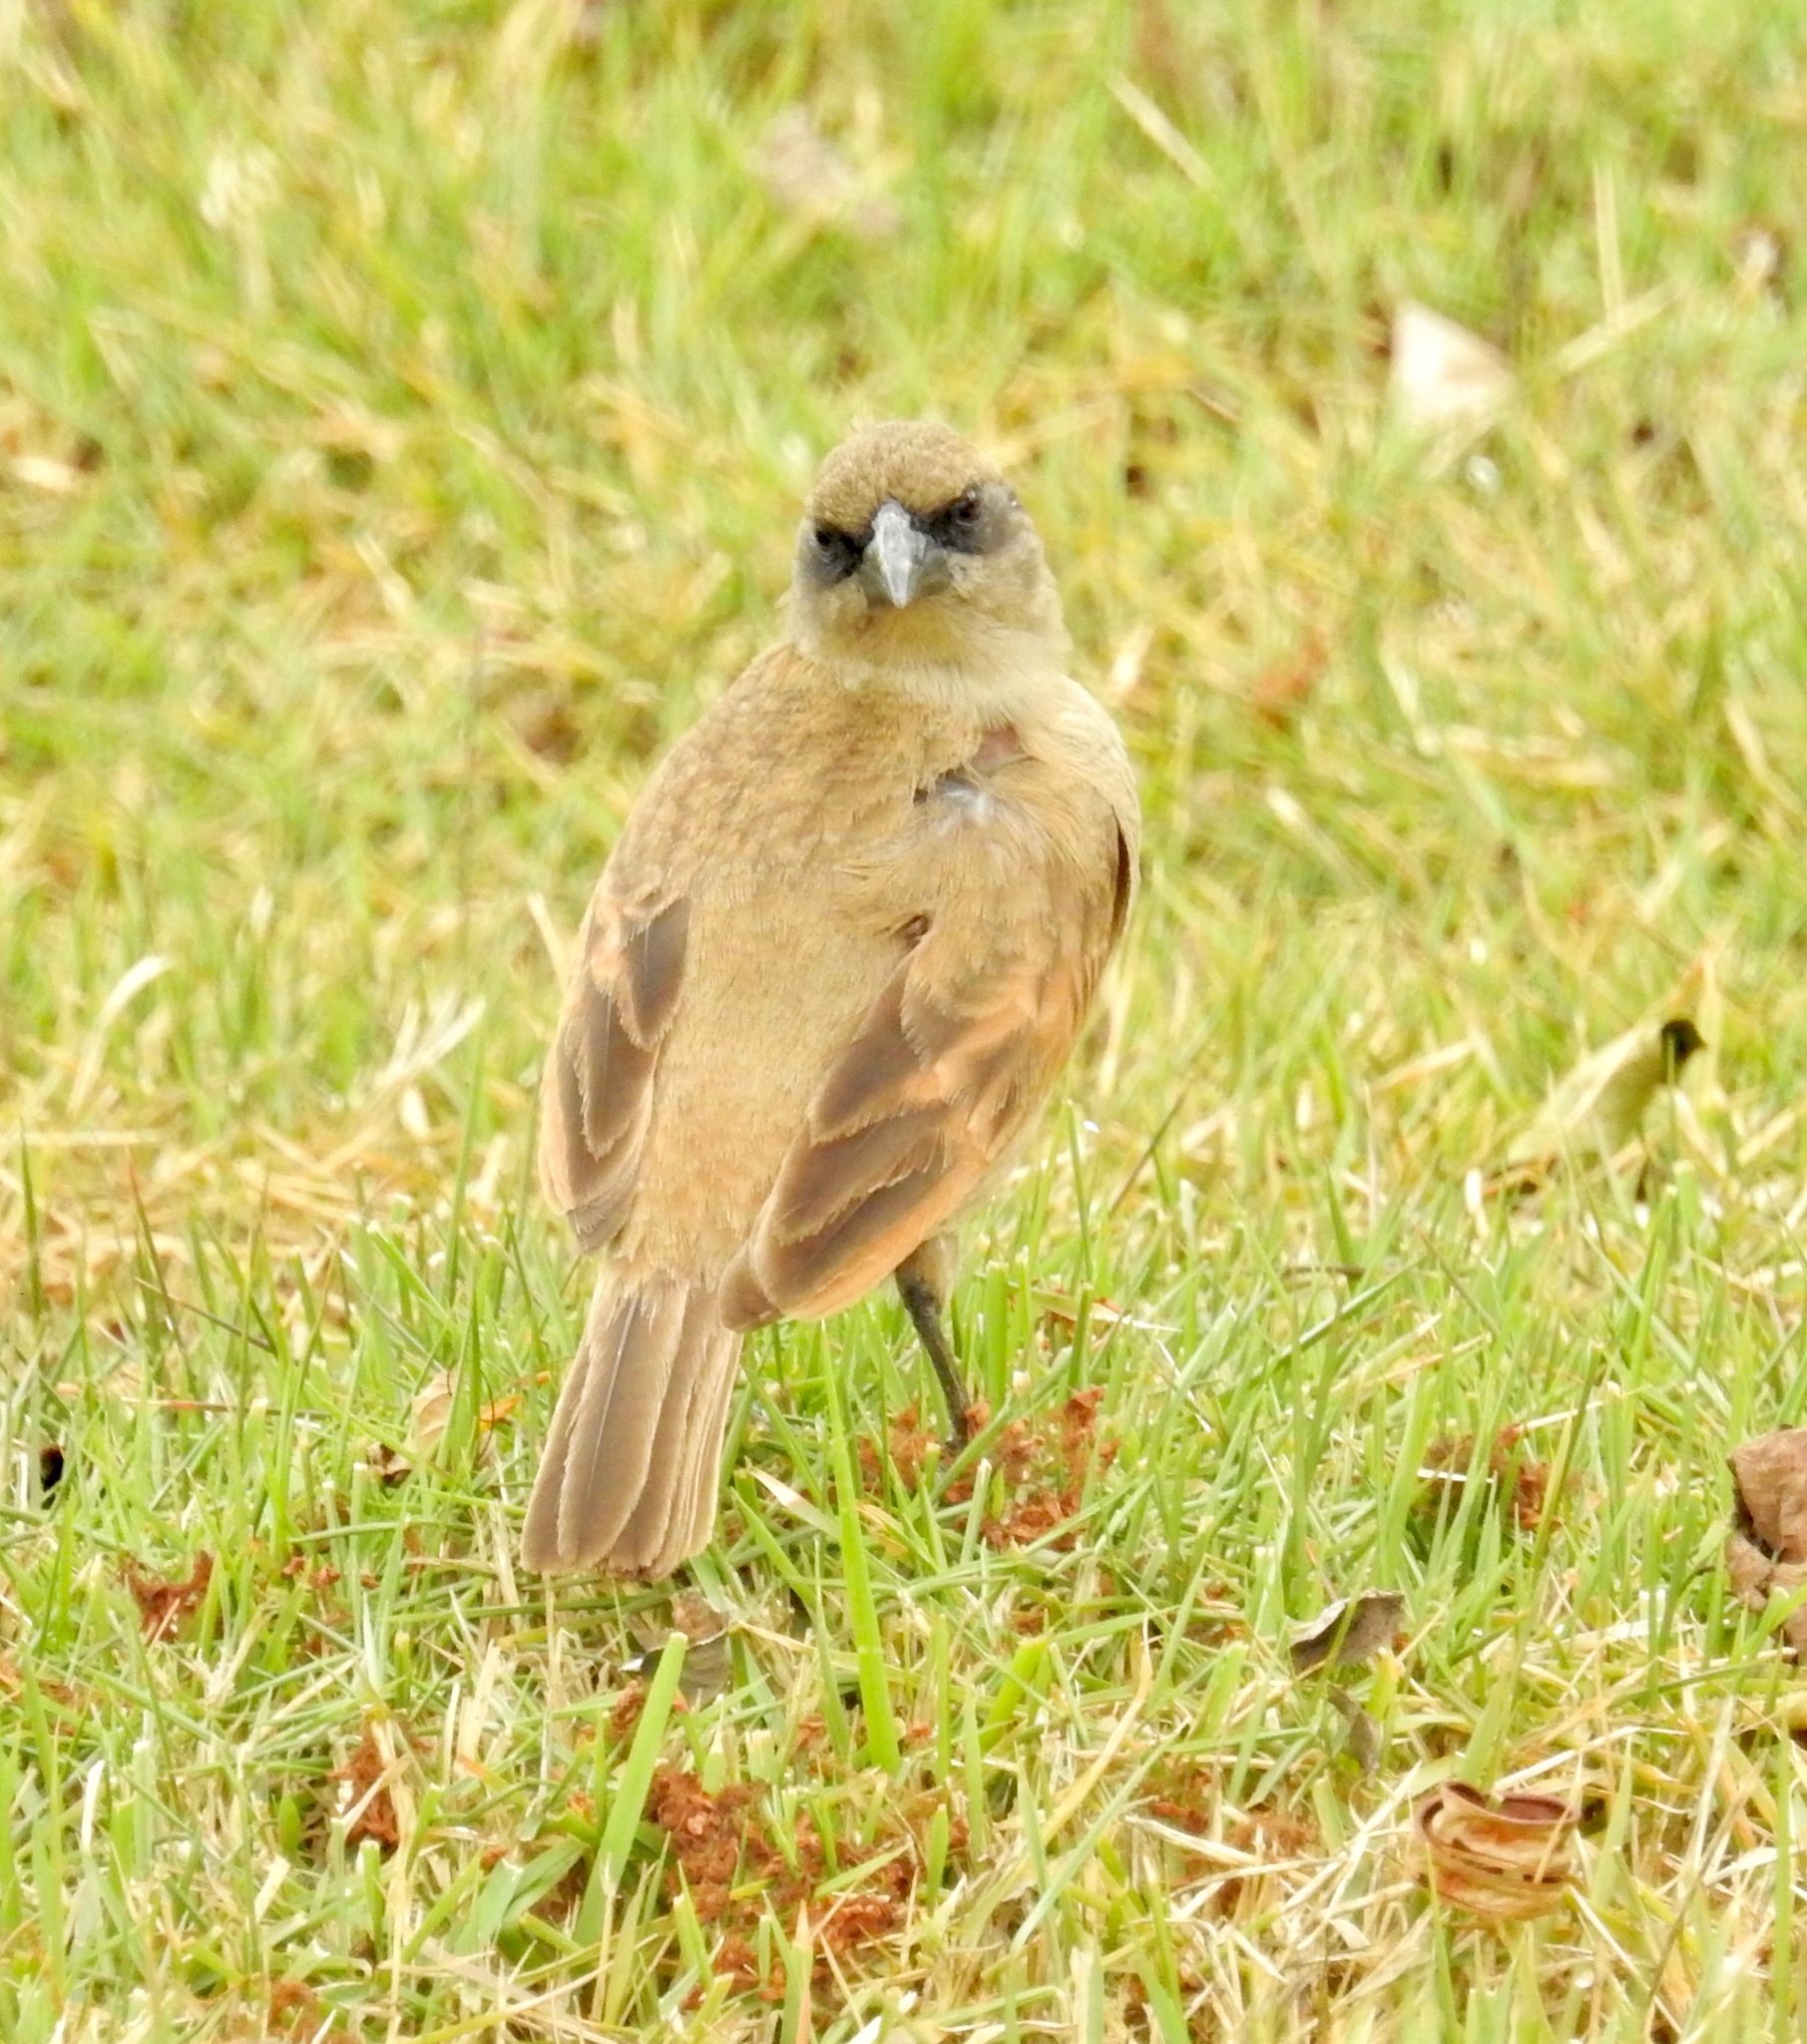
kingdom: Animalia
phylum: Chordata
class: Aves
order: Passeriformes
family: Icteridae
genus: Agelaioides
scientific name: Agelaioides badius
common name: Baywing
